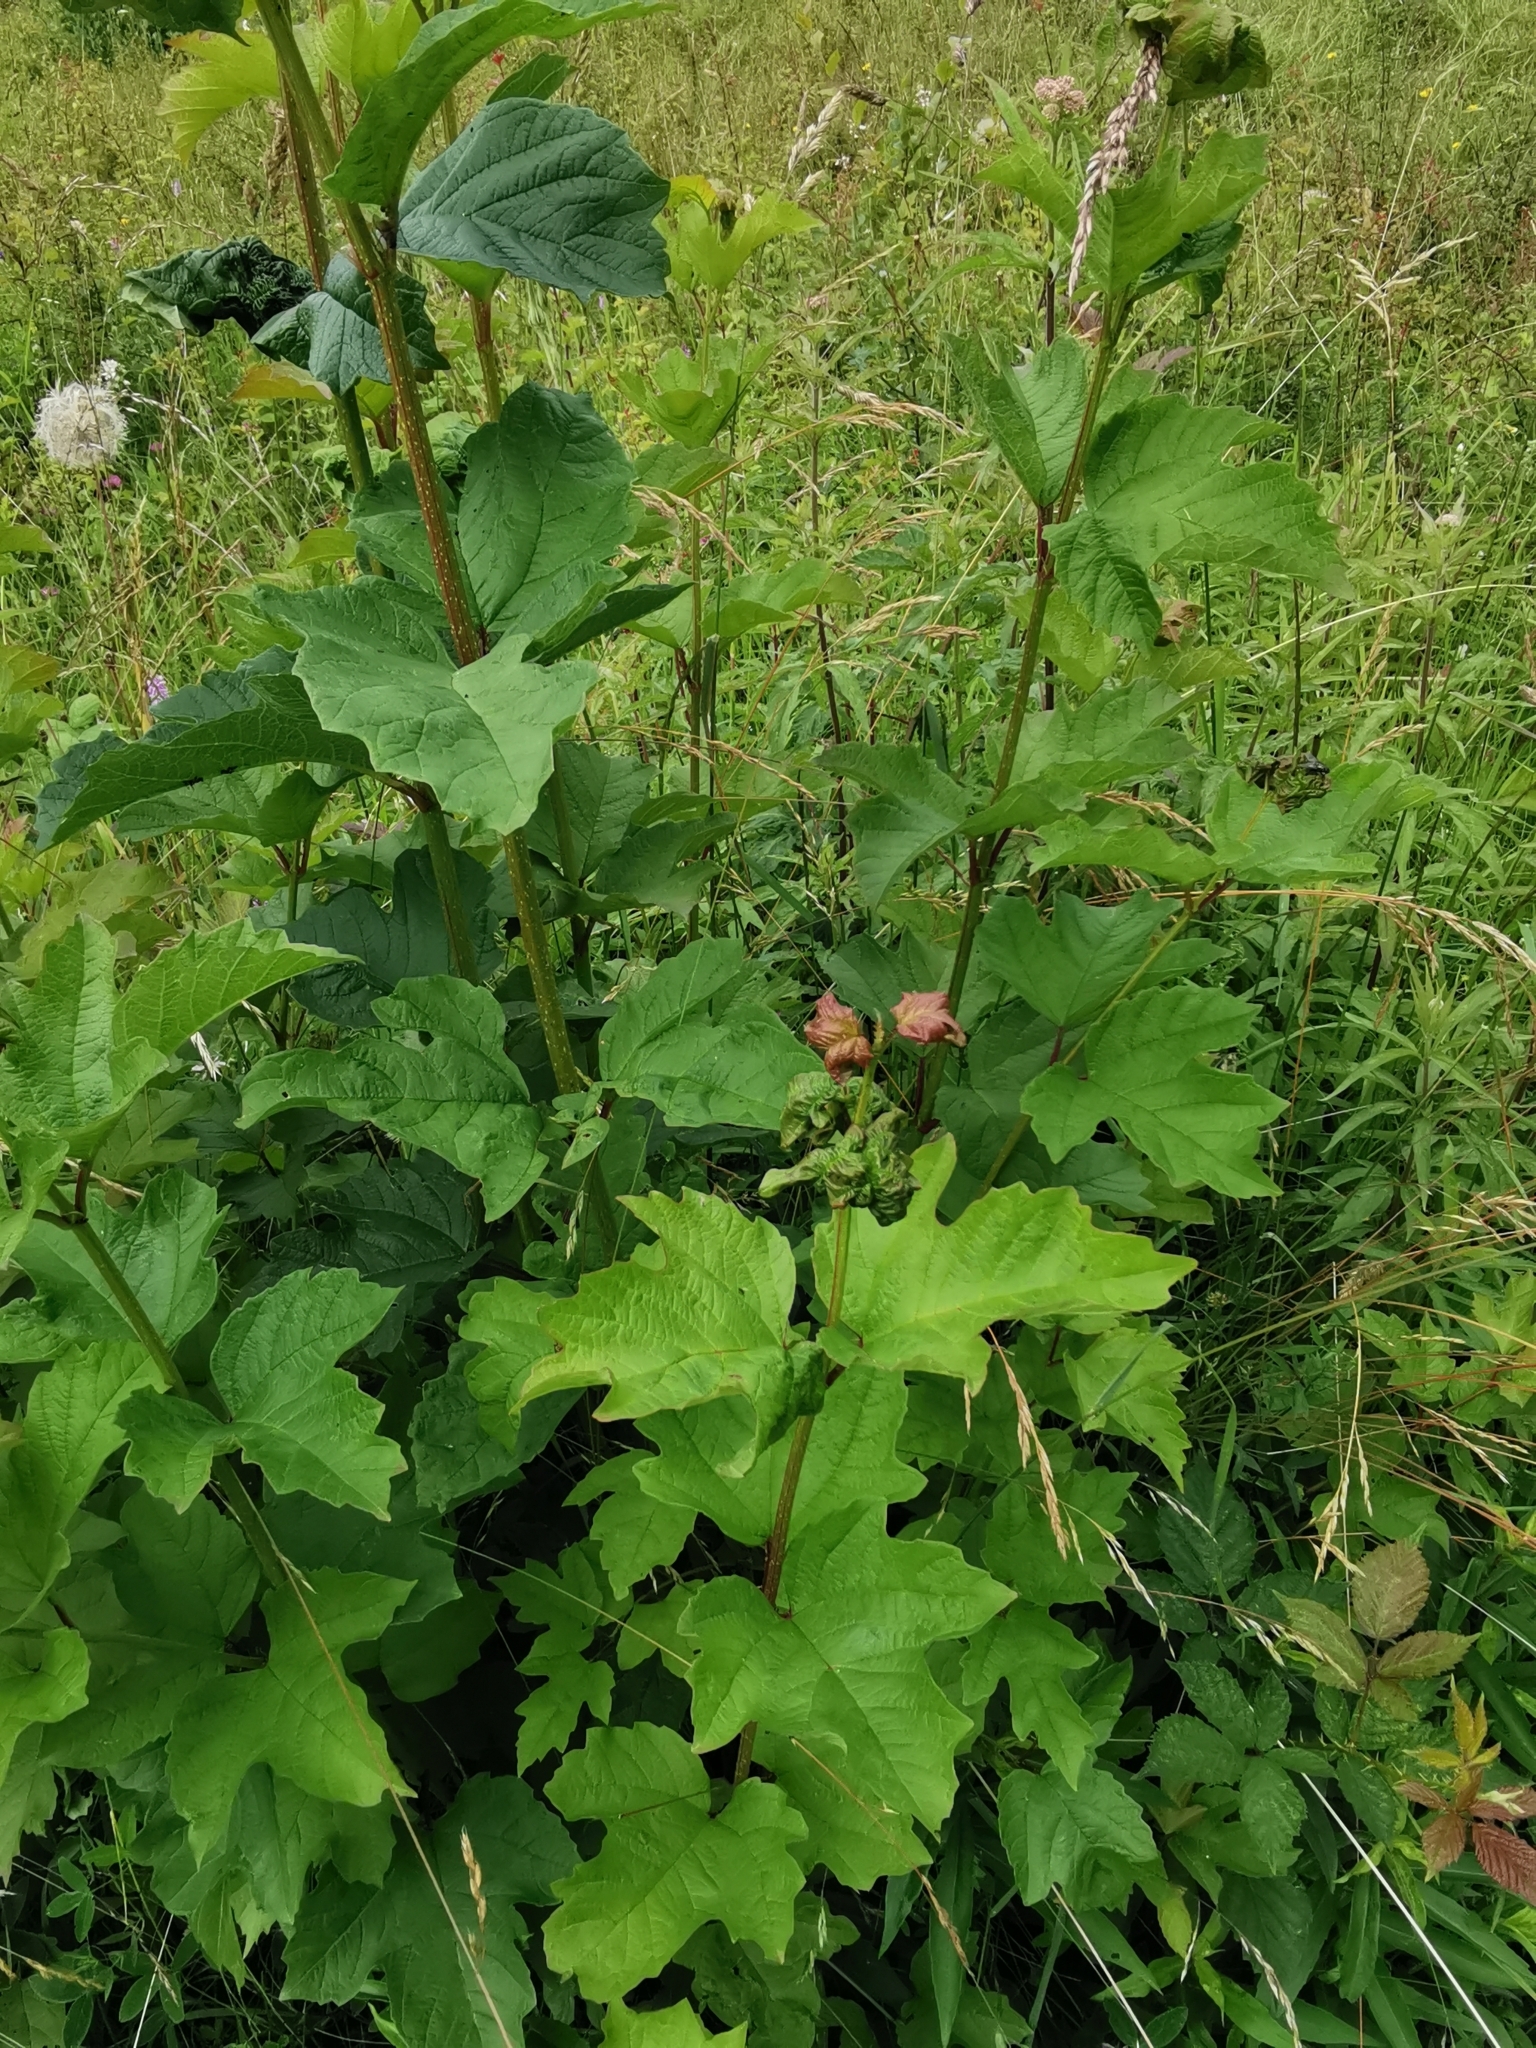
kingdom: Plantae
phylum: Tracheophyta
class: Magnoliopsida
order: Dipsacales
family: Viburnaceae
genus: Viburnum
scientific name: Viburnum opulus
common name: Guelder-rose
